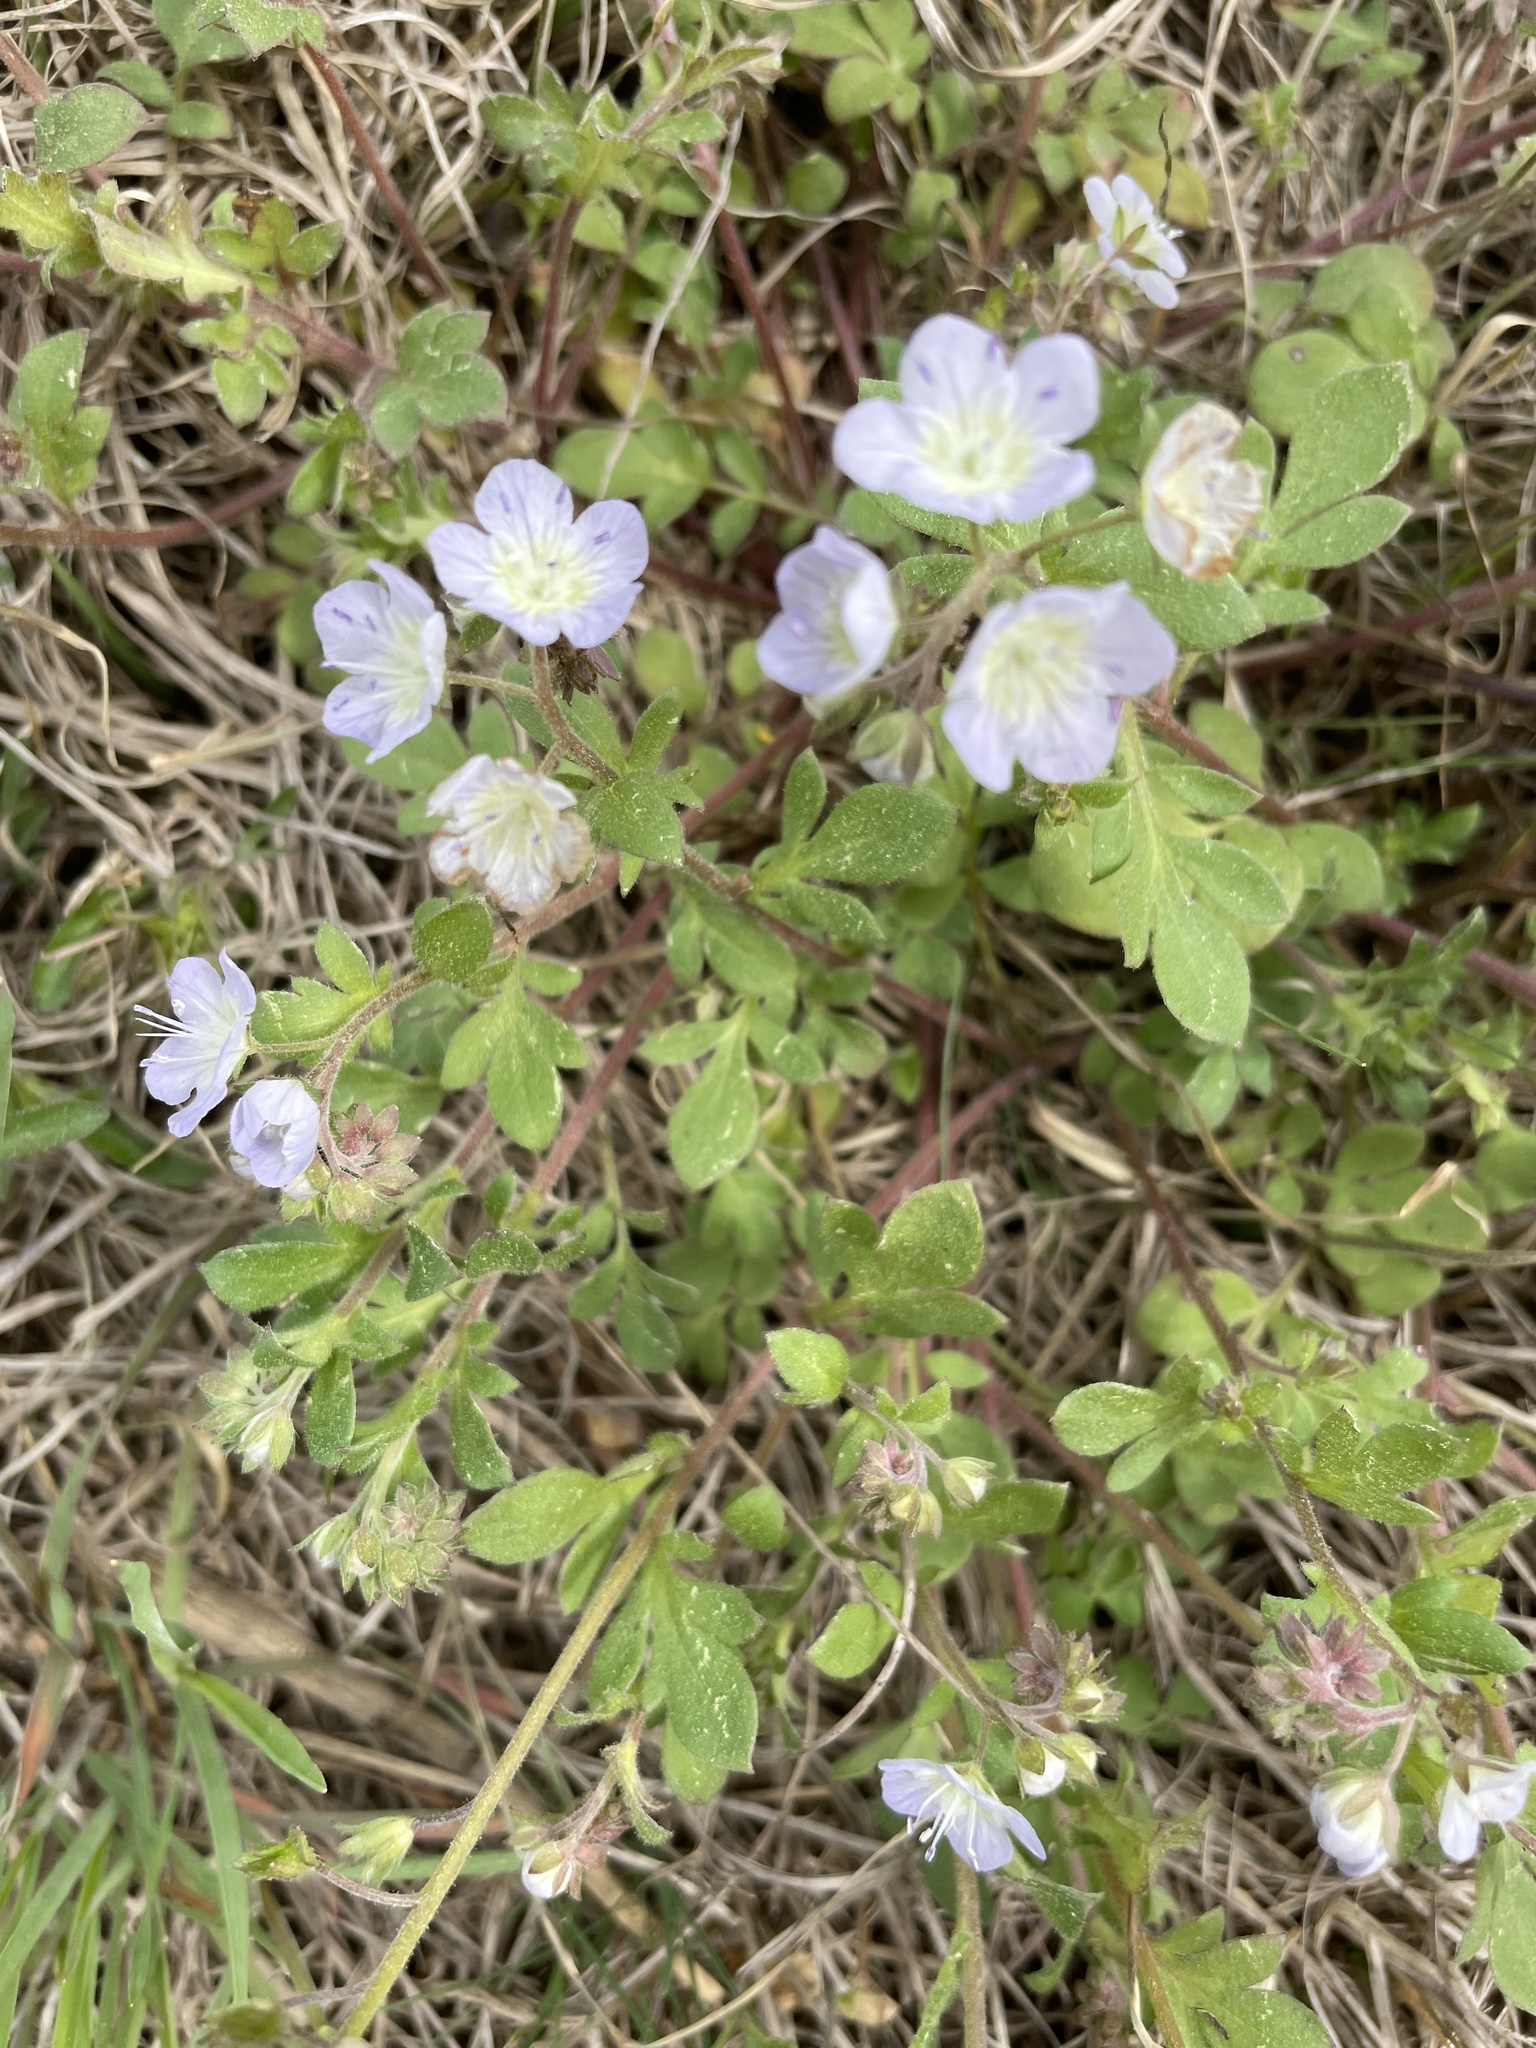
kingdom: Plantae
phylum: Tracheophyta
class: Magnoliopsida
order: Boraginales
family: Hydrophyllaceae
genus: Phacelia
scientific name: Phacelia dubia
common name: Appalachian phacelia
